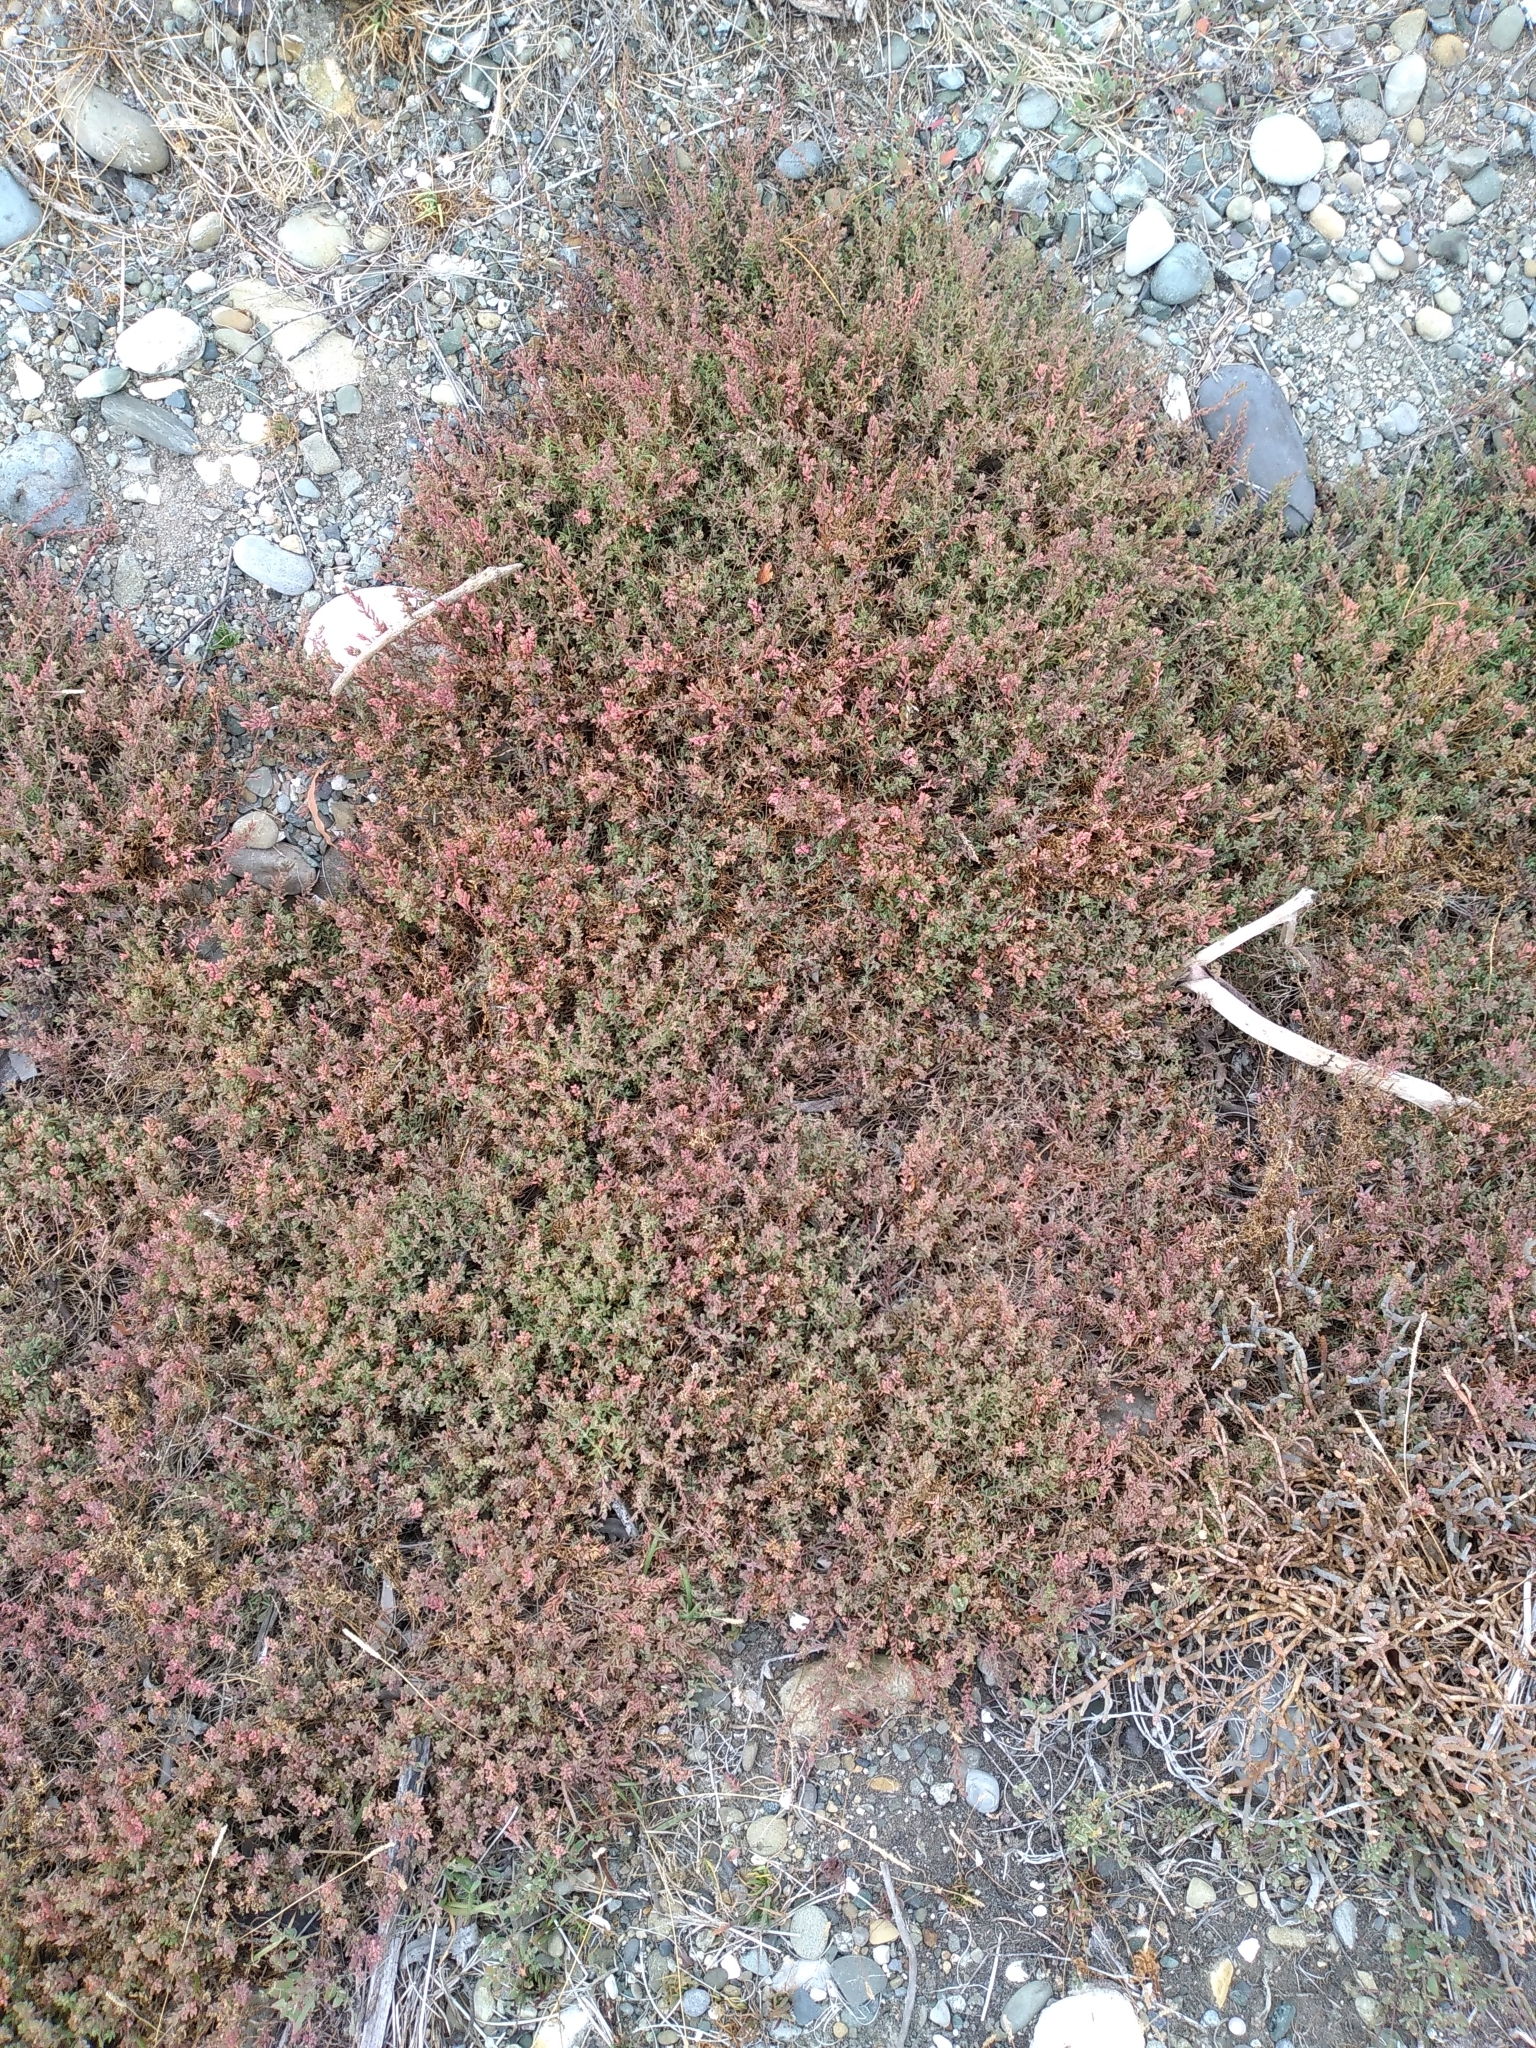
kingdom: Plantae
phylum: Tracheophyta
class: Magnoliopsida
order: Caryophyllales
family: Amaranthaceae
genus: Suaeda
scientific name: Suaeda novae-zelandiae
